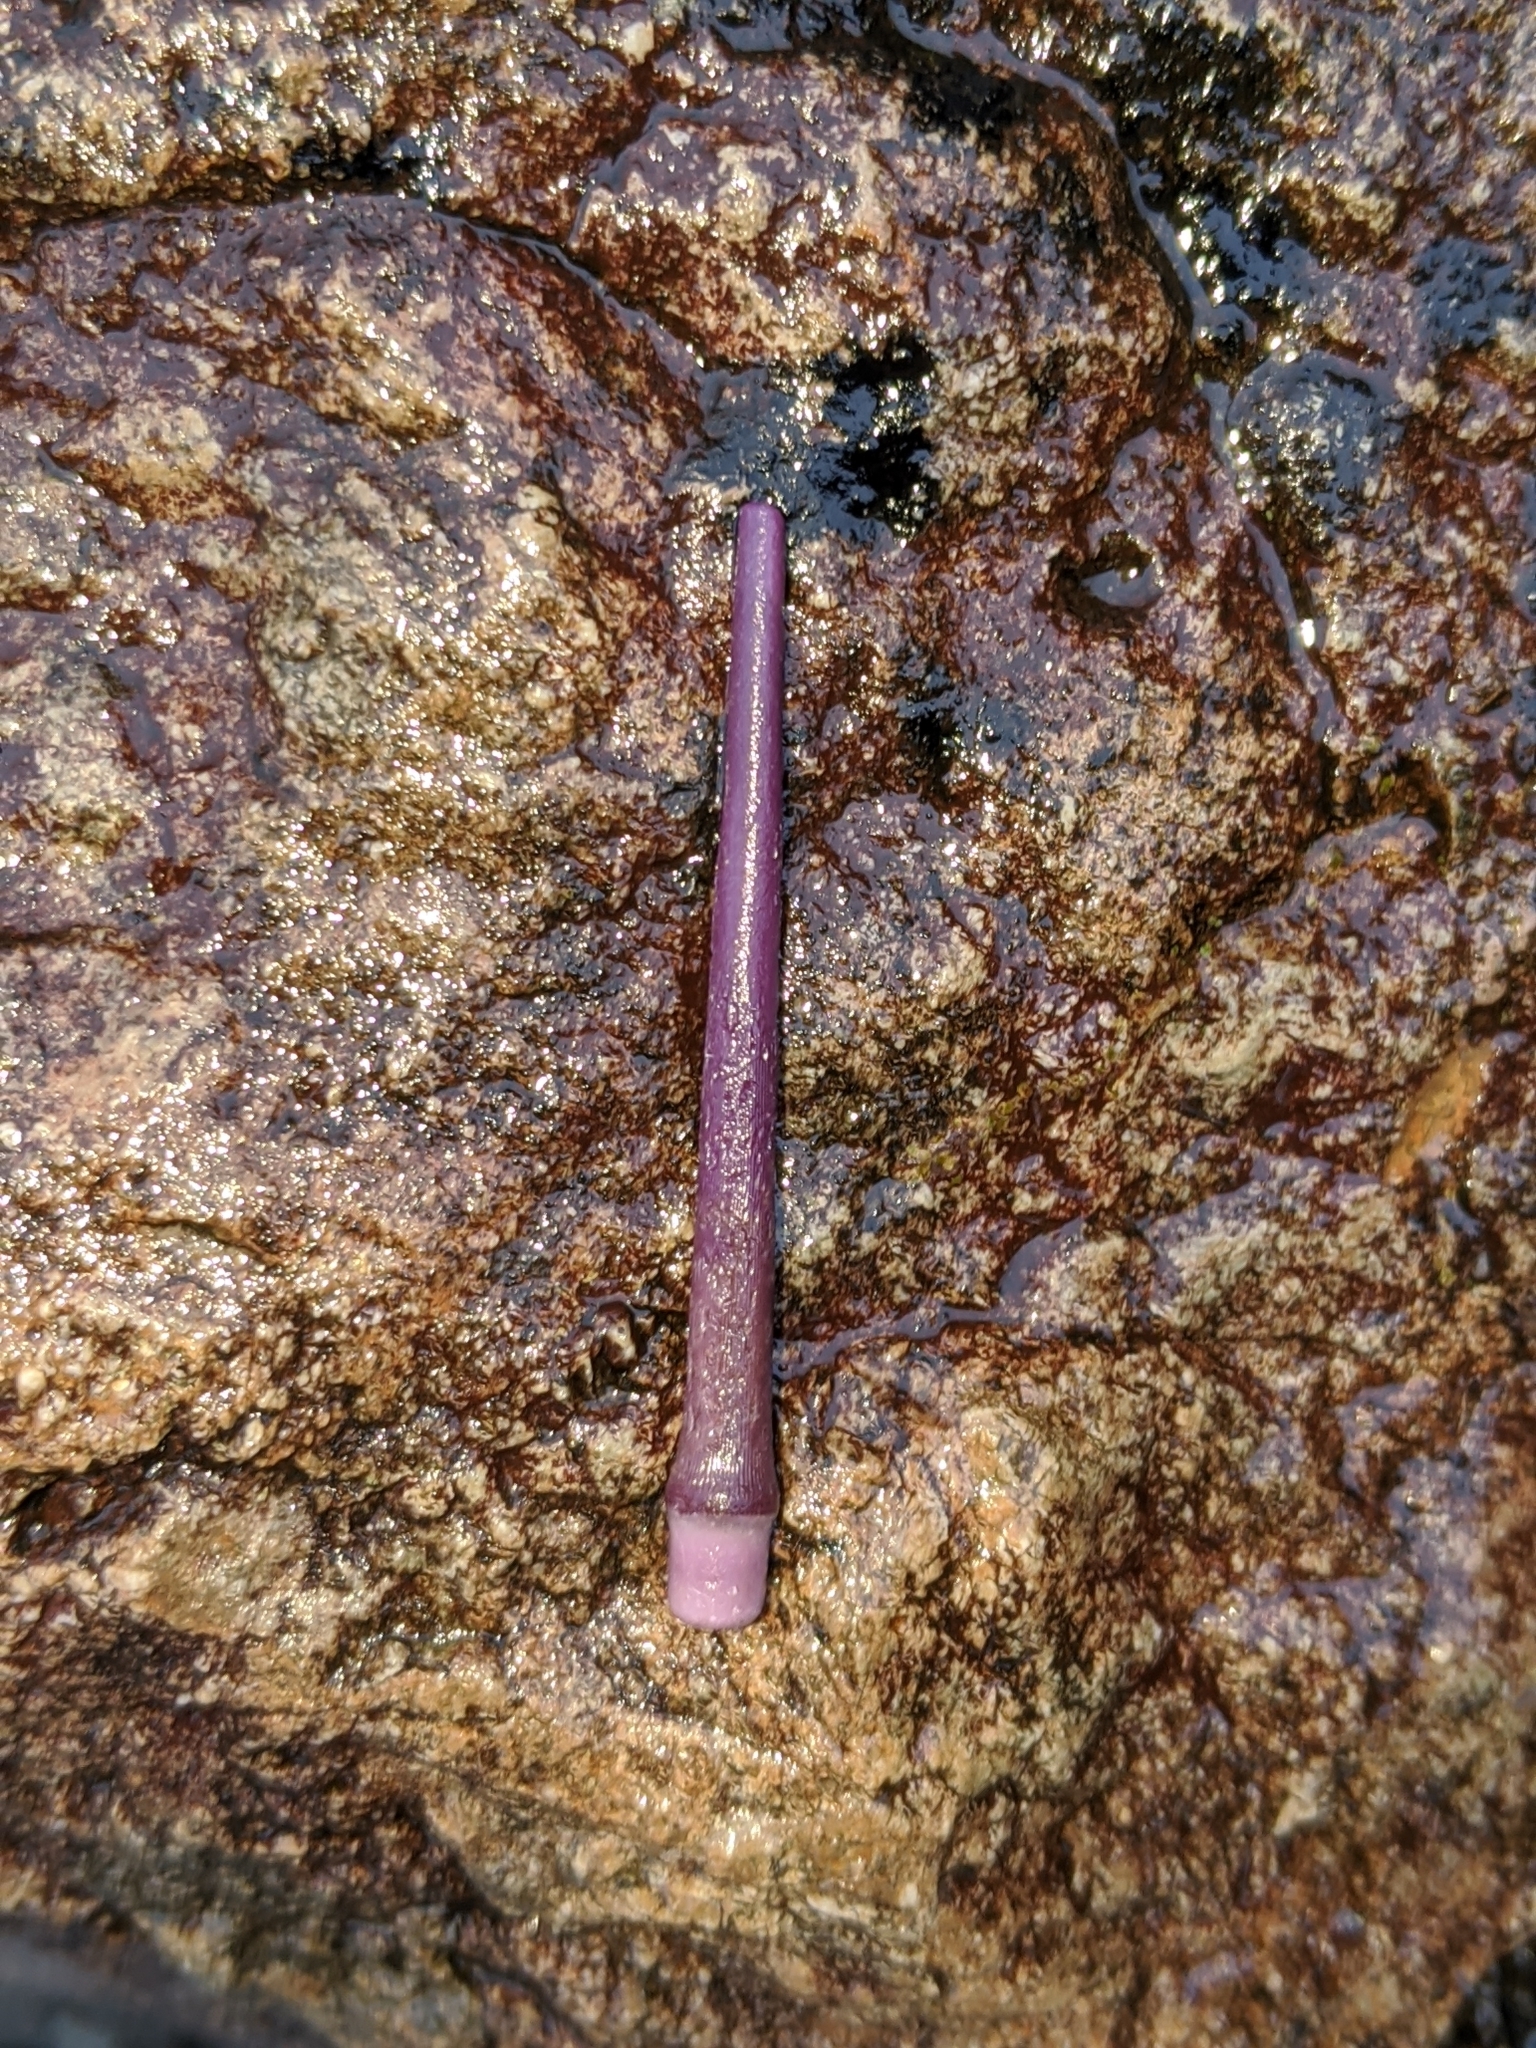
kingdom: Animalia
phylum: Echinodermata
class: Echinoidea
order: Camarodonta
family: Strongylocentrotidae
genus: Strongylocentrotus
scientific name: Strongylocentrotus purpuratus
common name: Purple sea urchin
